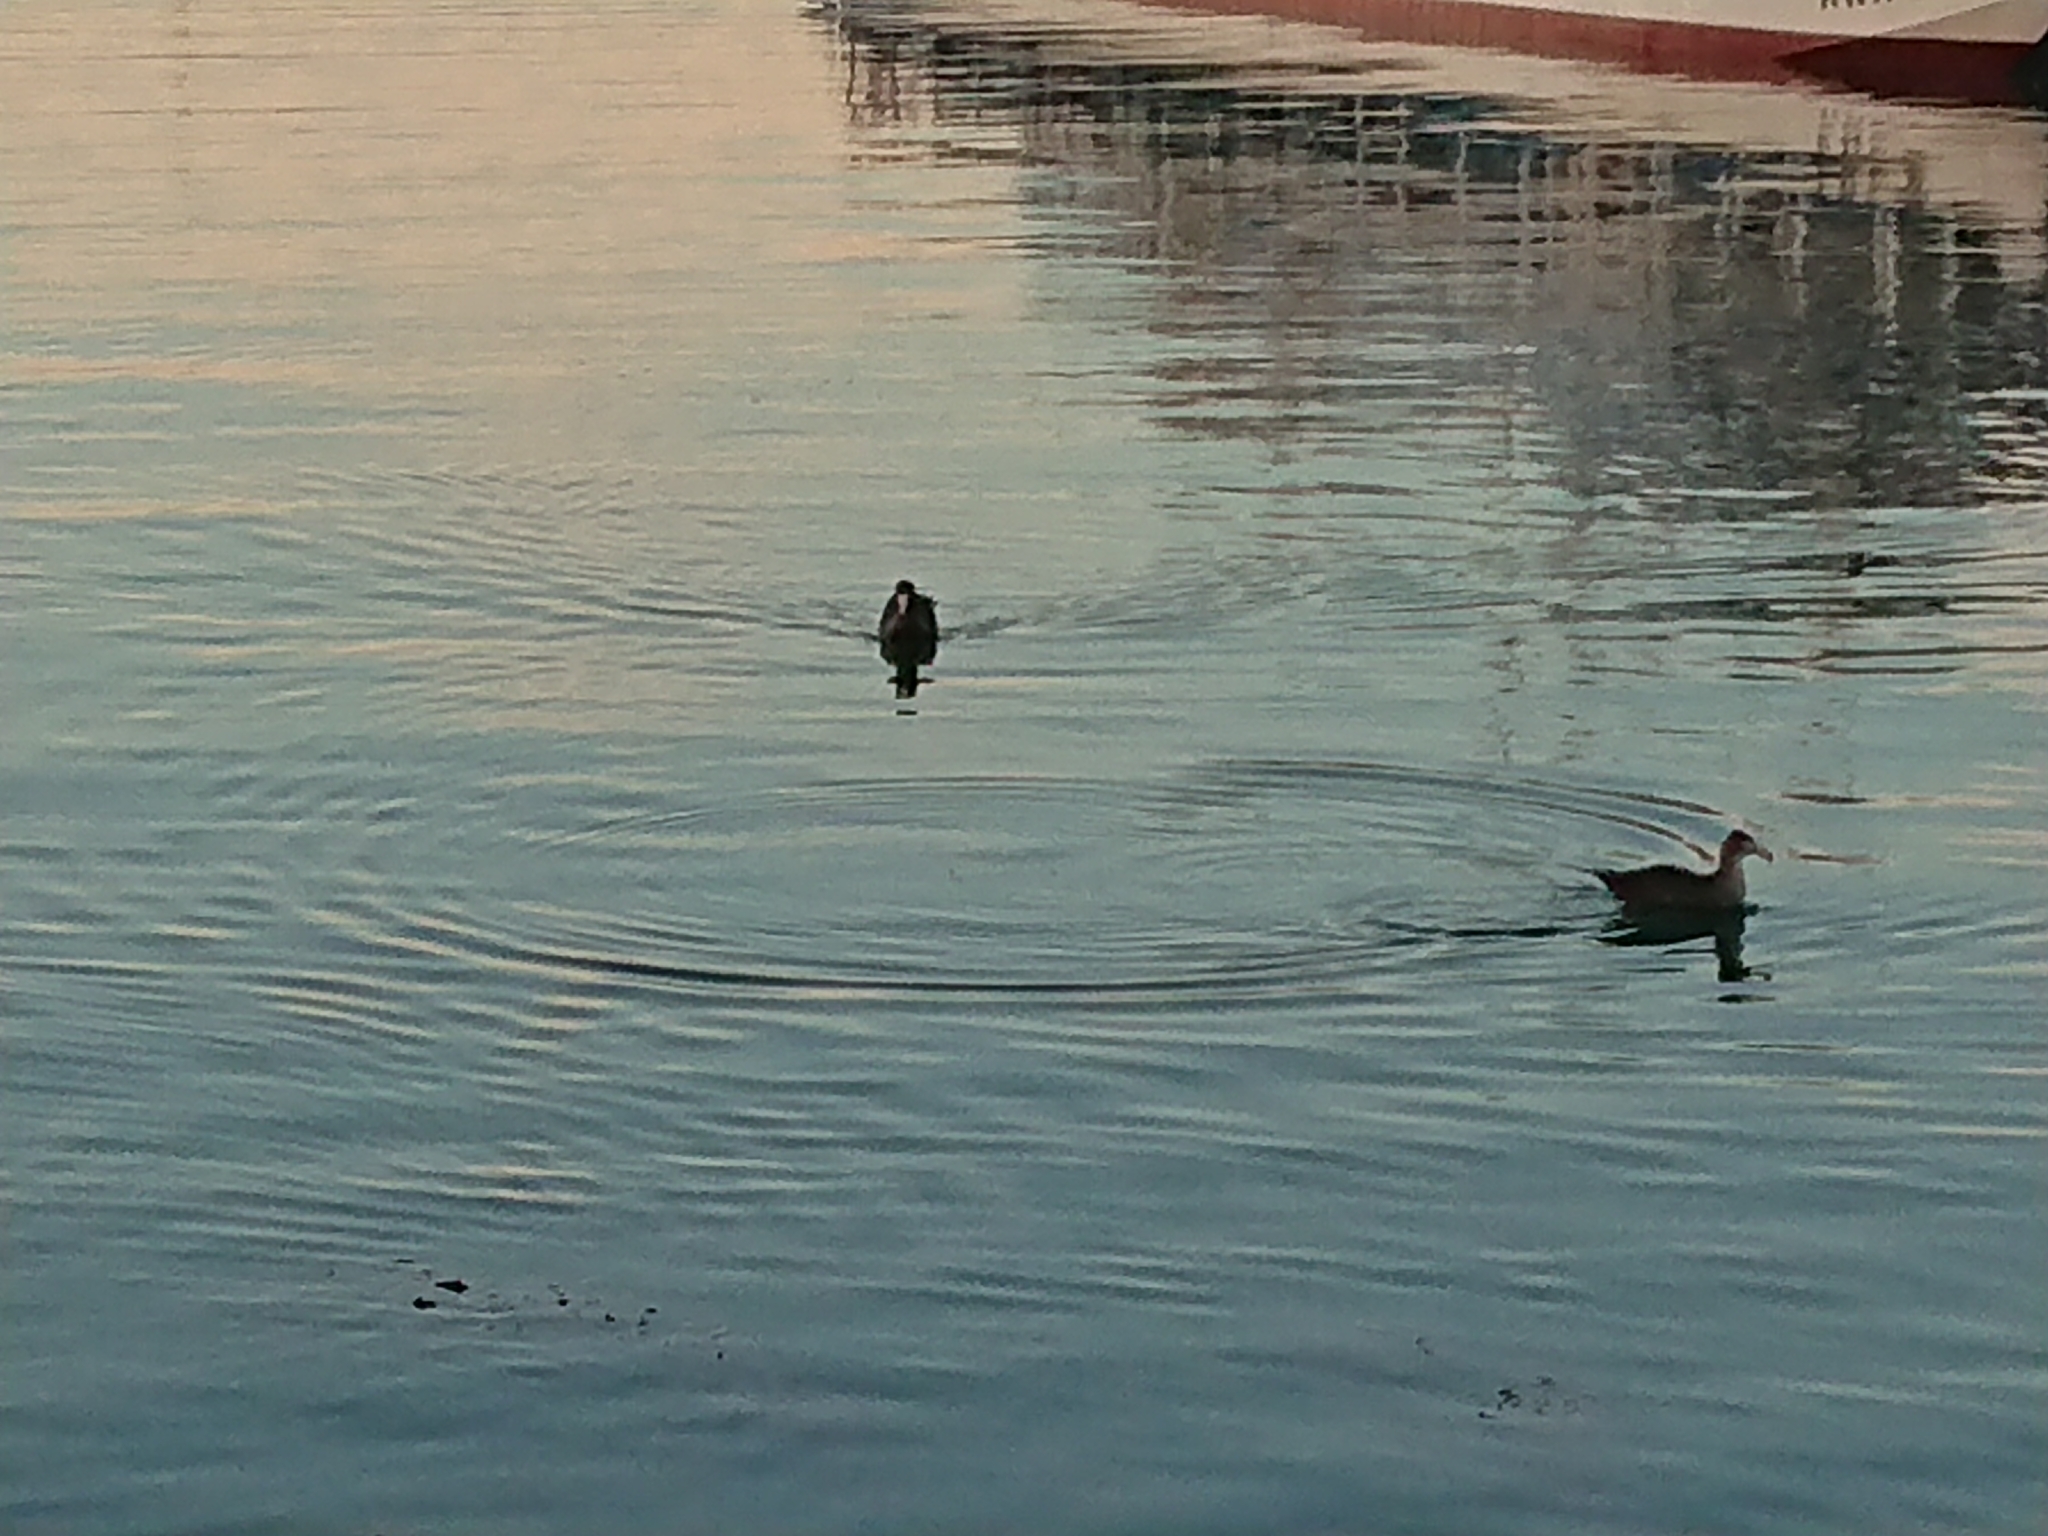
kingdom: Animalia
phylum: Chordata
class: Aves
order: Procellariiformes
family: Procellariidae
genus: Macronectes
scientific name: Macronectes
